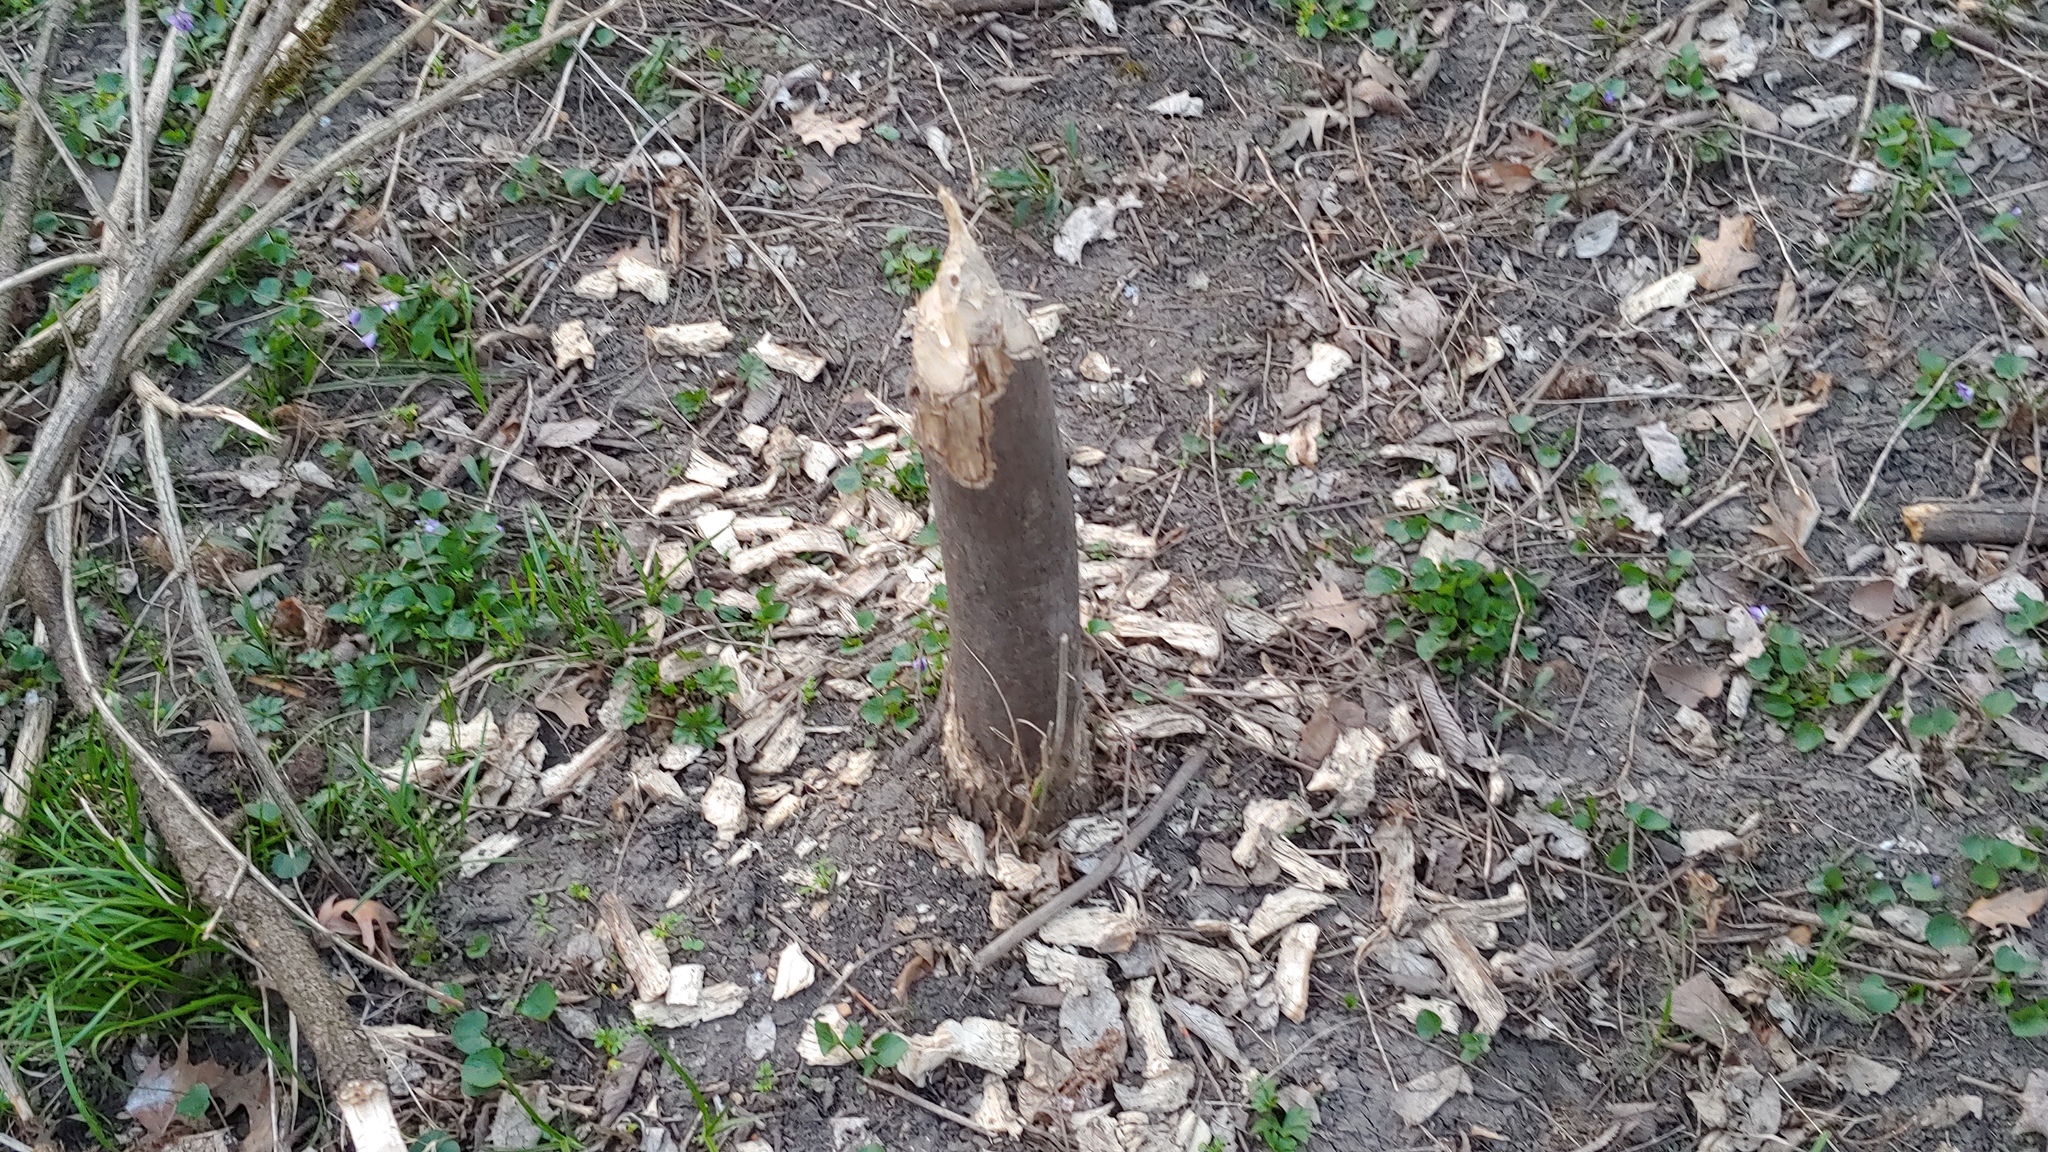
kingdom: Animalia
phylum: Chordata
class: Mammalia
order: Rodentia
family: Castoridae
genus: Castor
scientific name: Castor canadensis
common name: American beaver
